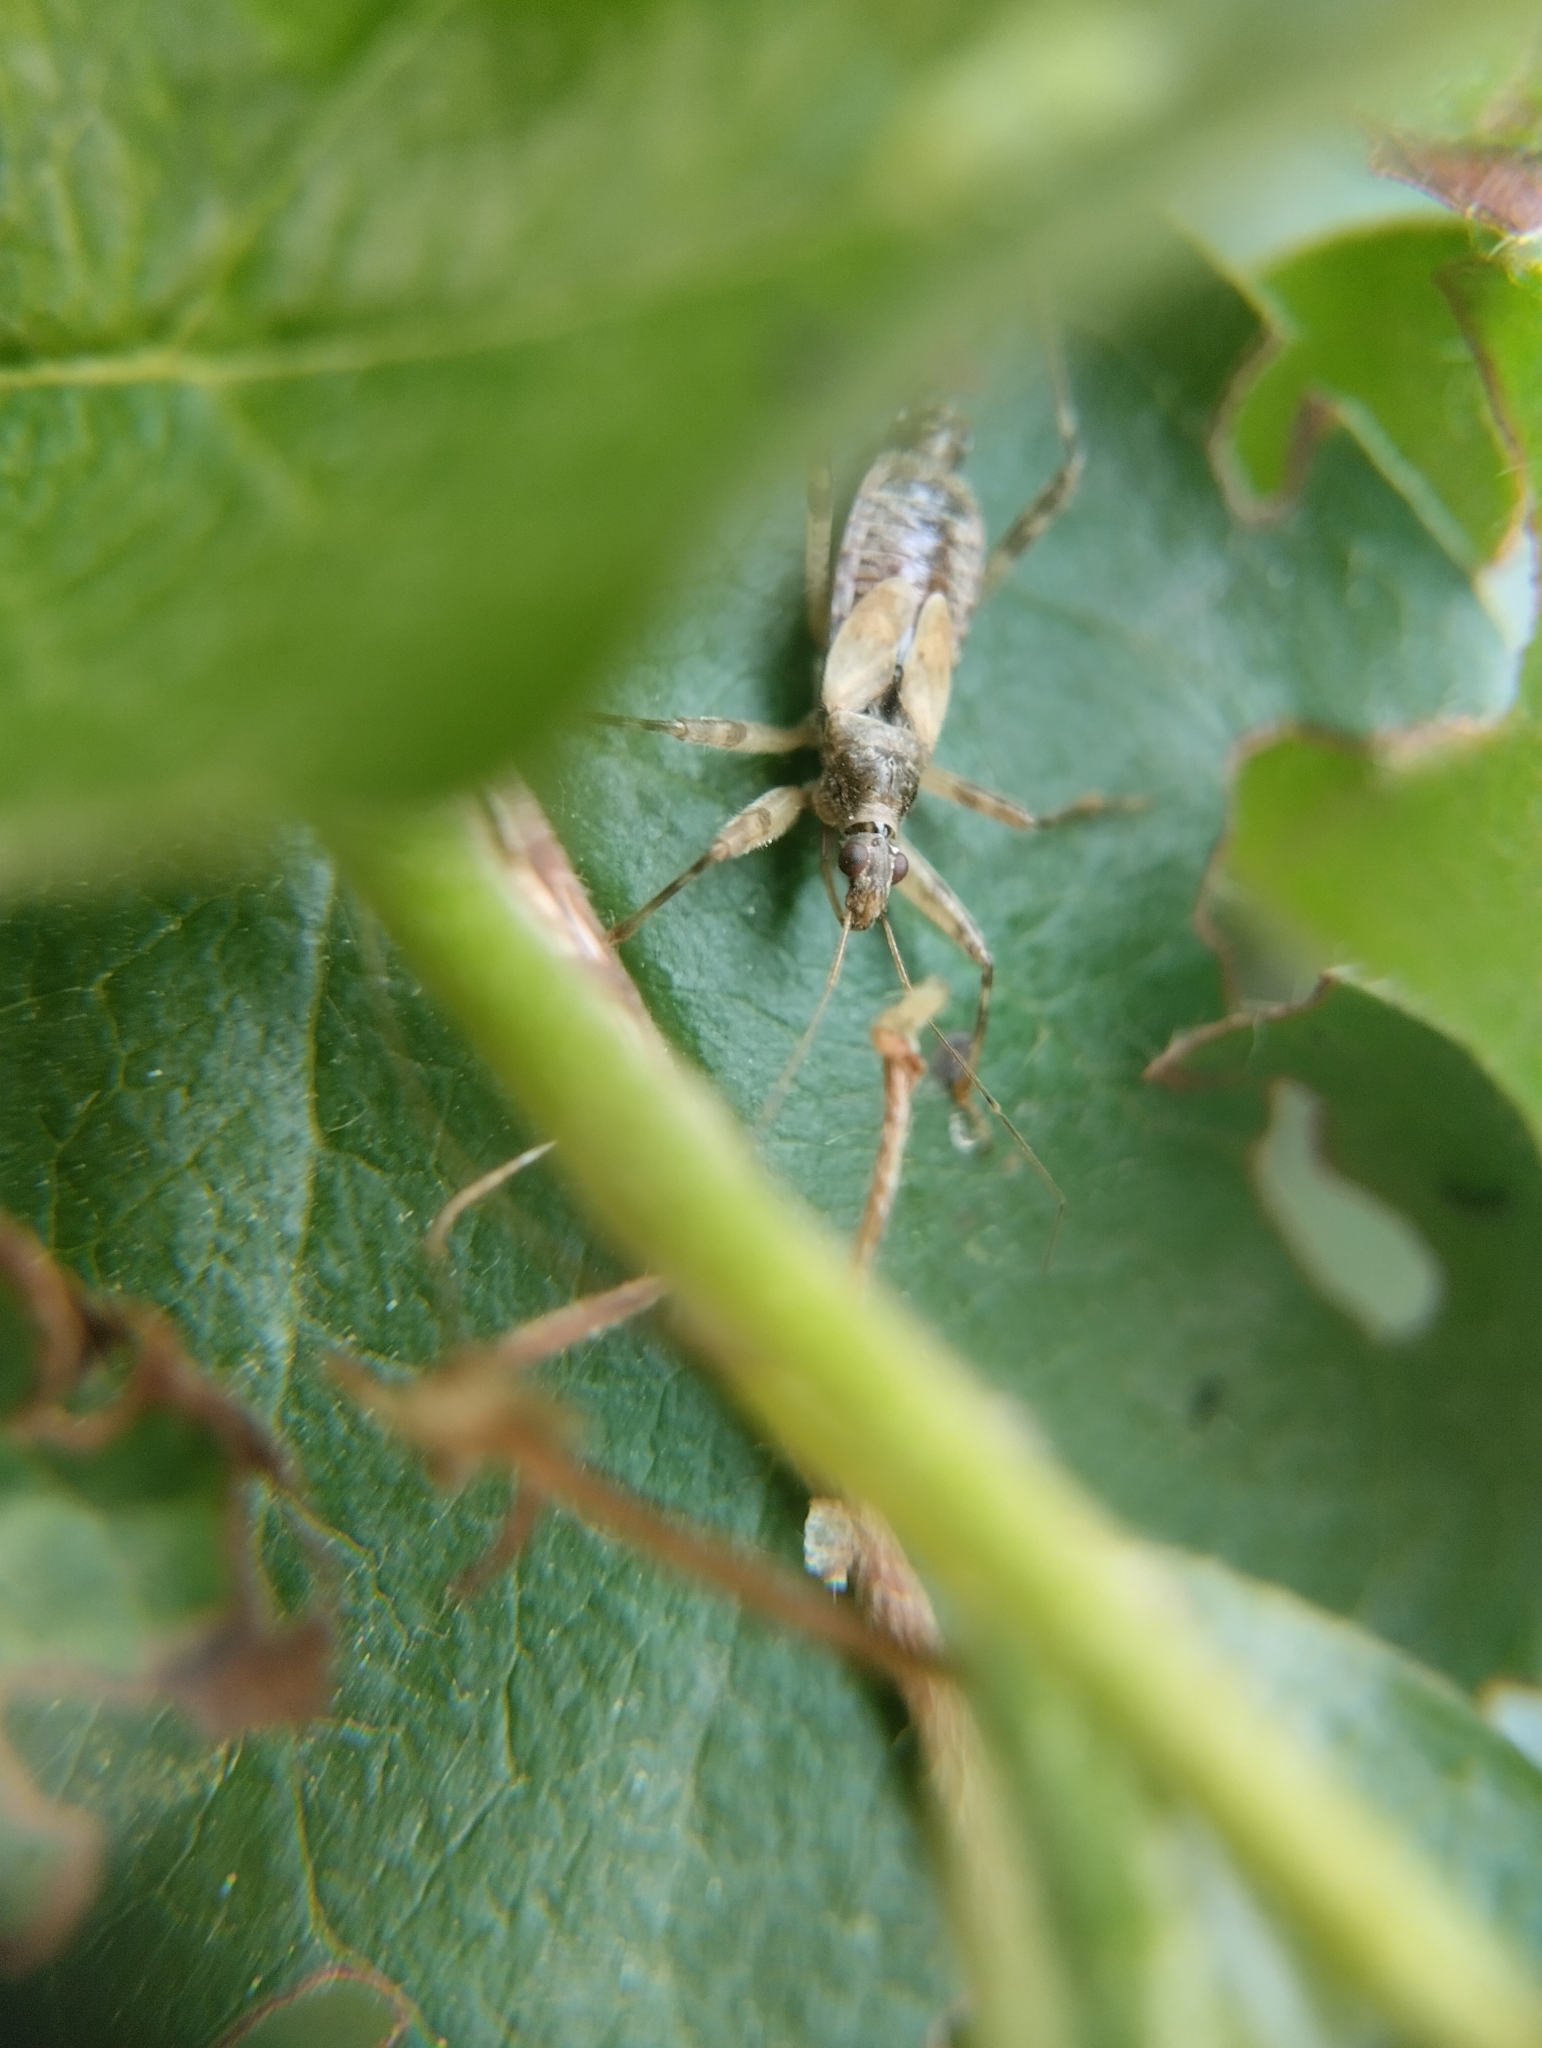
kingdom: Animalia
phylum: Arthropoda
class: Insecta
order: Hemiptera
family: Nabidae
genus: Himacerus
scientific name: Himacerus apterus
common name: Tree damsel bug
